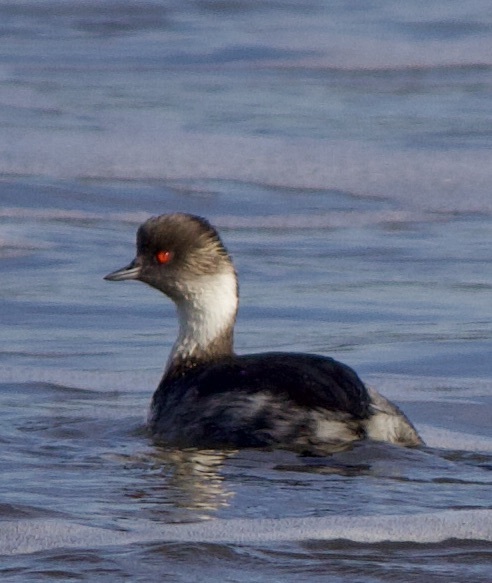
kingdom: Animalia
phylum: Chordata
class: Aves
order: Podicipediformes
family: Podicipedidae
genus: Podiceps
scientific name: Podiceps occipitalis
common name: Silvery grebe
